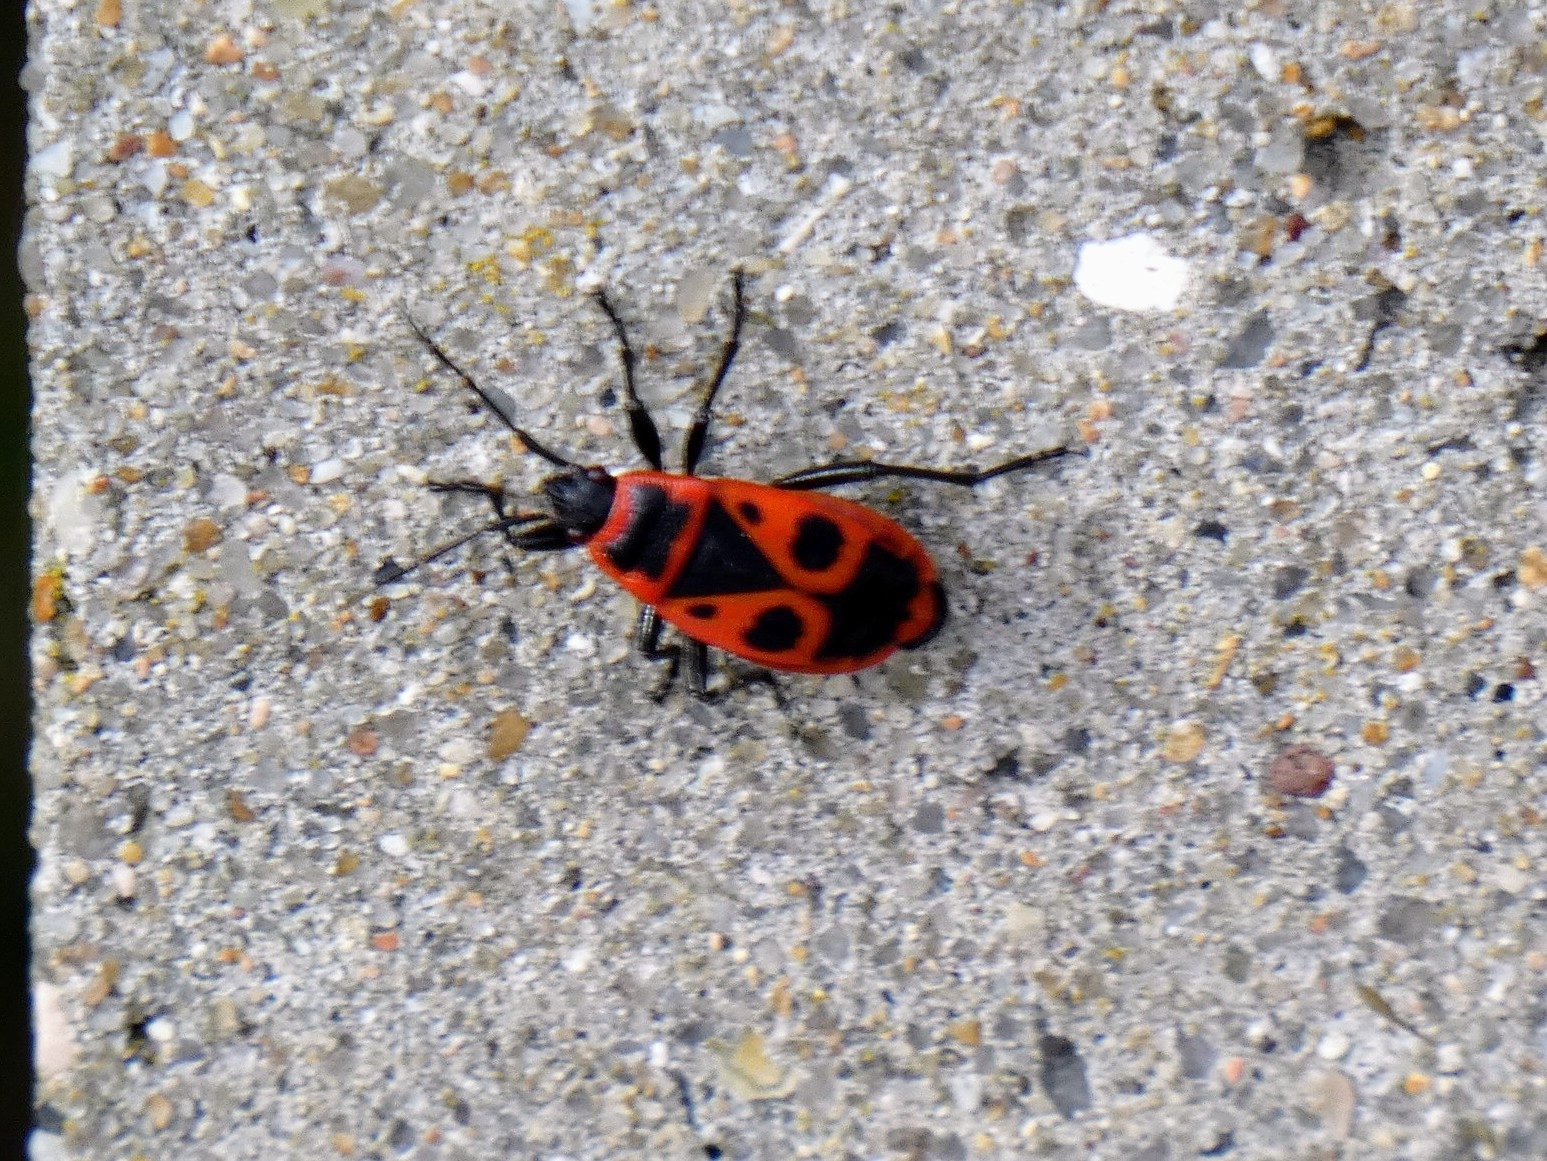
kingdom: Animalia
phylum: Arthropoda
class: Insecta
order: Hemiptera
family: Pyrrhocoridae
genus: Pyrrhocoris
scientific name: Pyrrhocoris apterus
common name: Firebug
